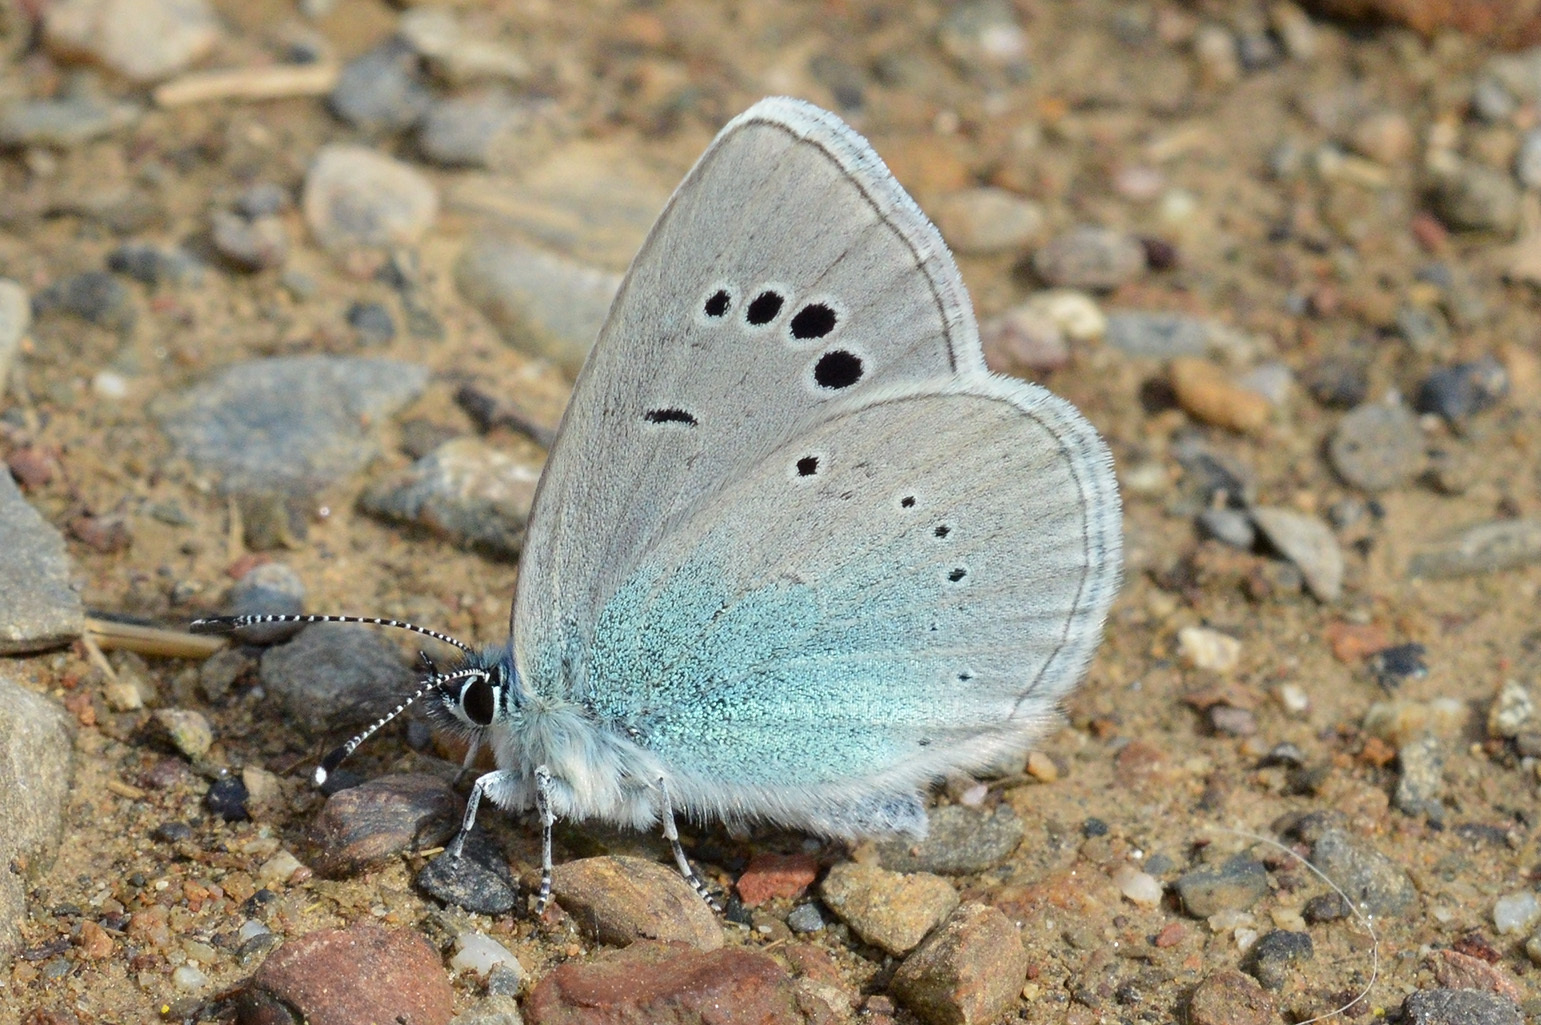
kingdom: Animalia
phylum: Arthropoda
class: Insecta
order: Lepidoptera
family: Lycaenidae
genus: Glaucopsyche
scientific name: Glaucopsyche alexis
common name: Green-underside blue
